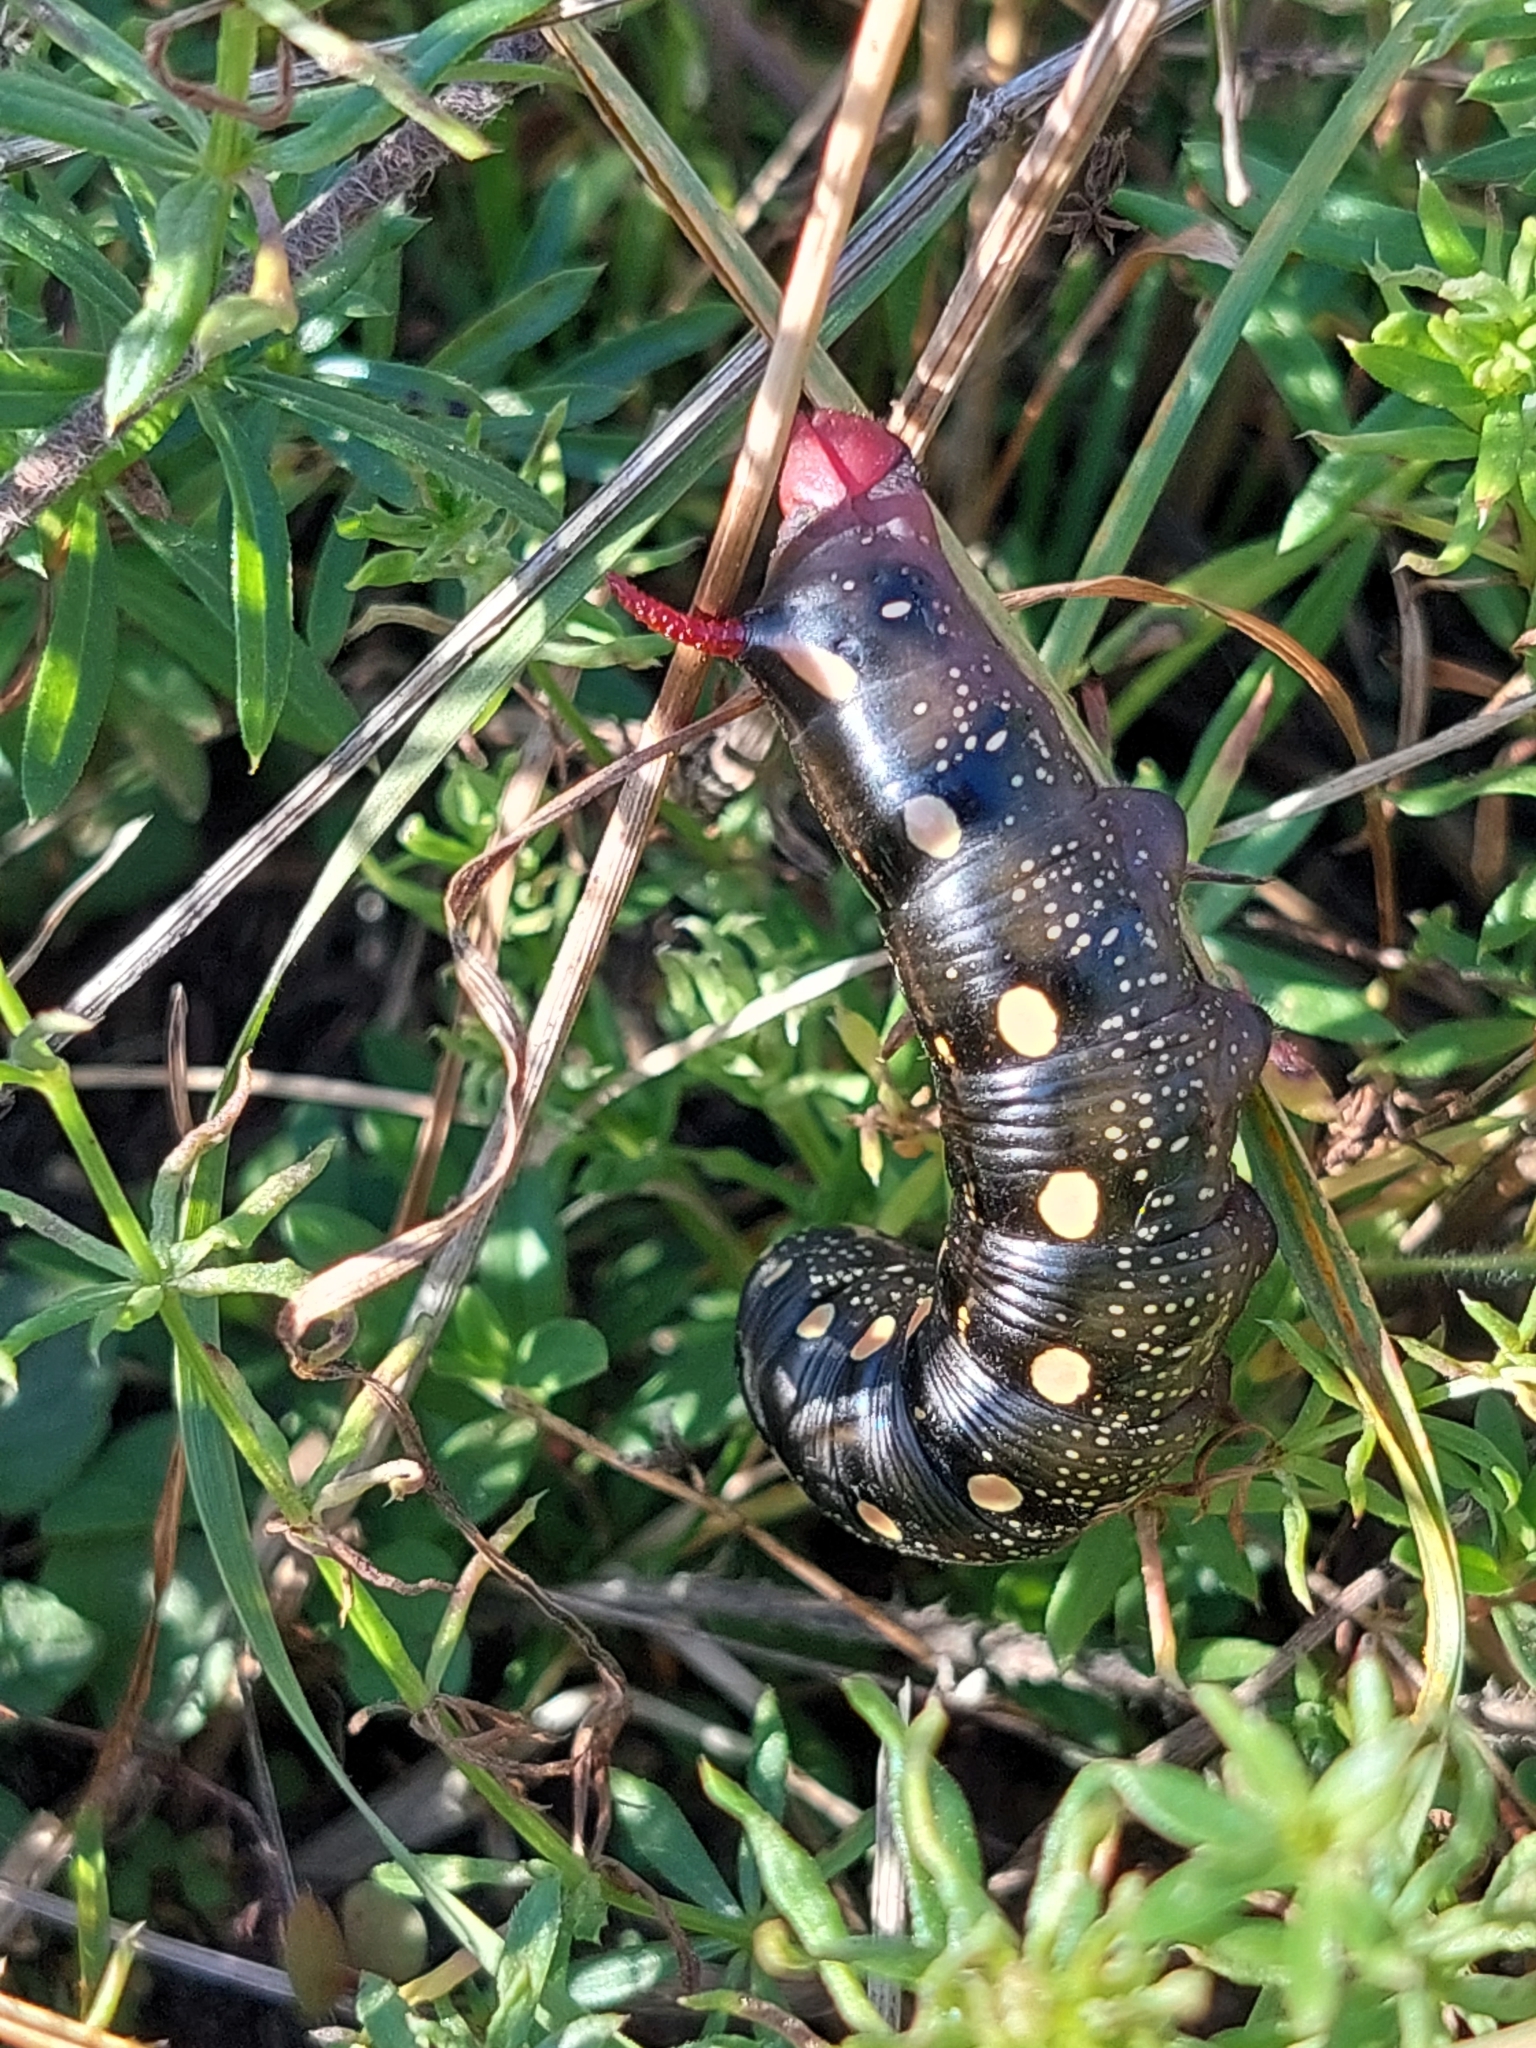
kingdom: Animalia
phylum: Arthropoda
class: Insecta
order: Lepidoptera
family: Sphingidae
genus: Hyles
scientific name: Hyles gallii
